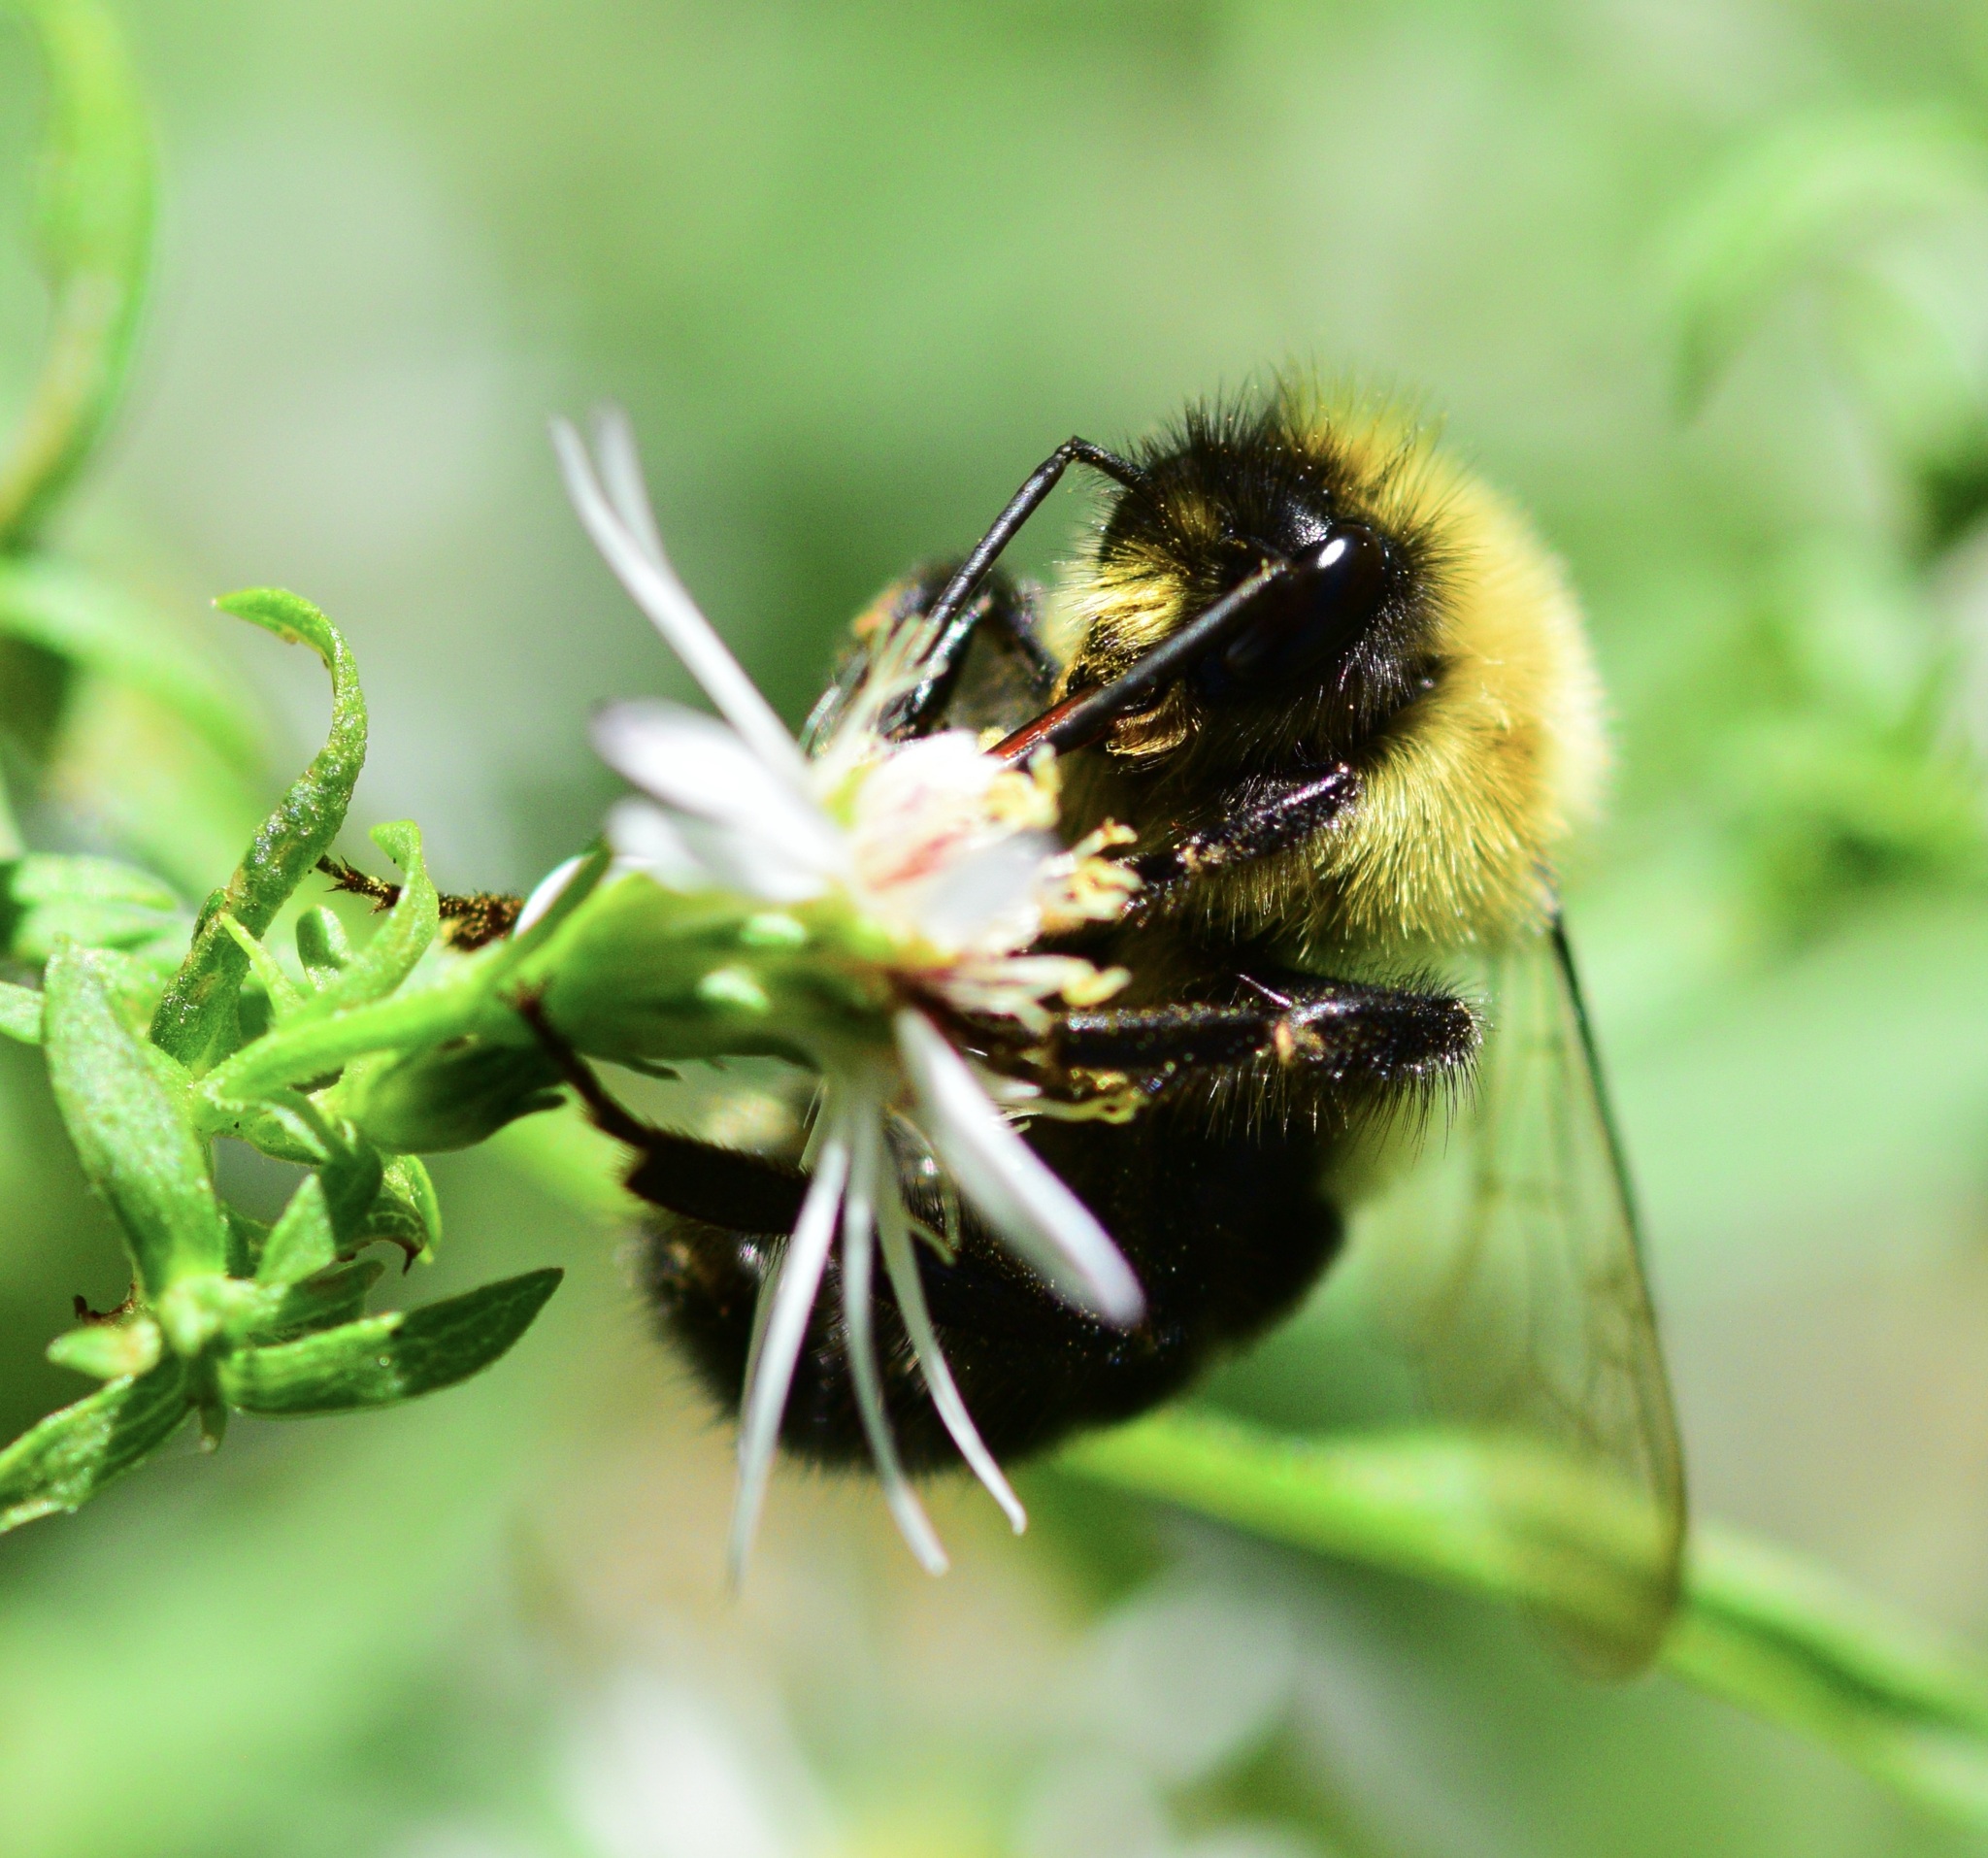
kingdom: Animalia
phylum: Arthropoda
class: Insecta
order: Hymenoptera
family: Apidae
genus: Bombus
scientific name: Bombus impatiens
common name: Common eastern bumble bee
